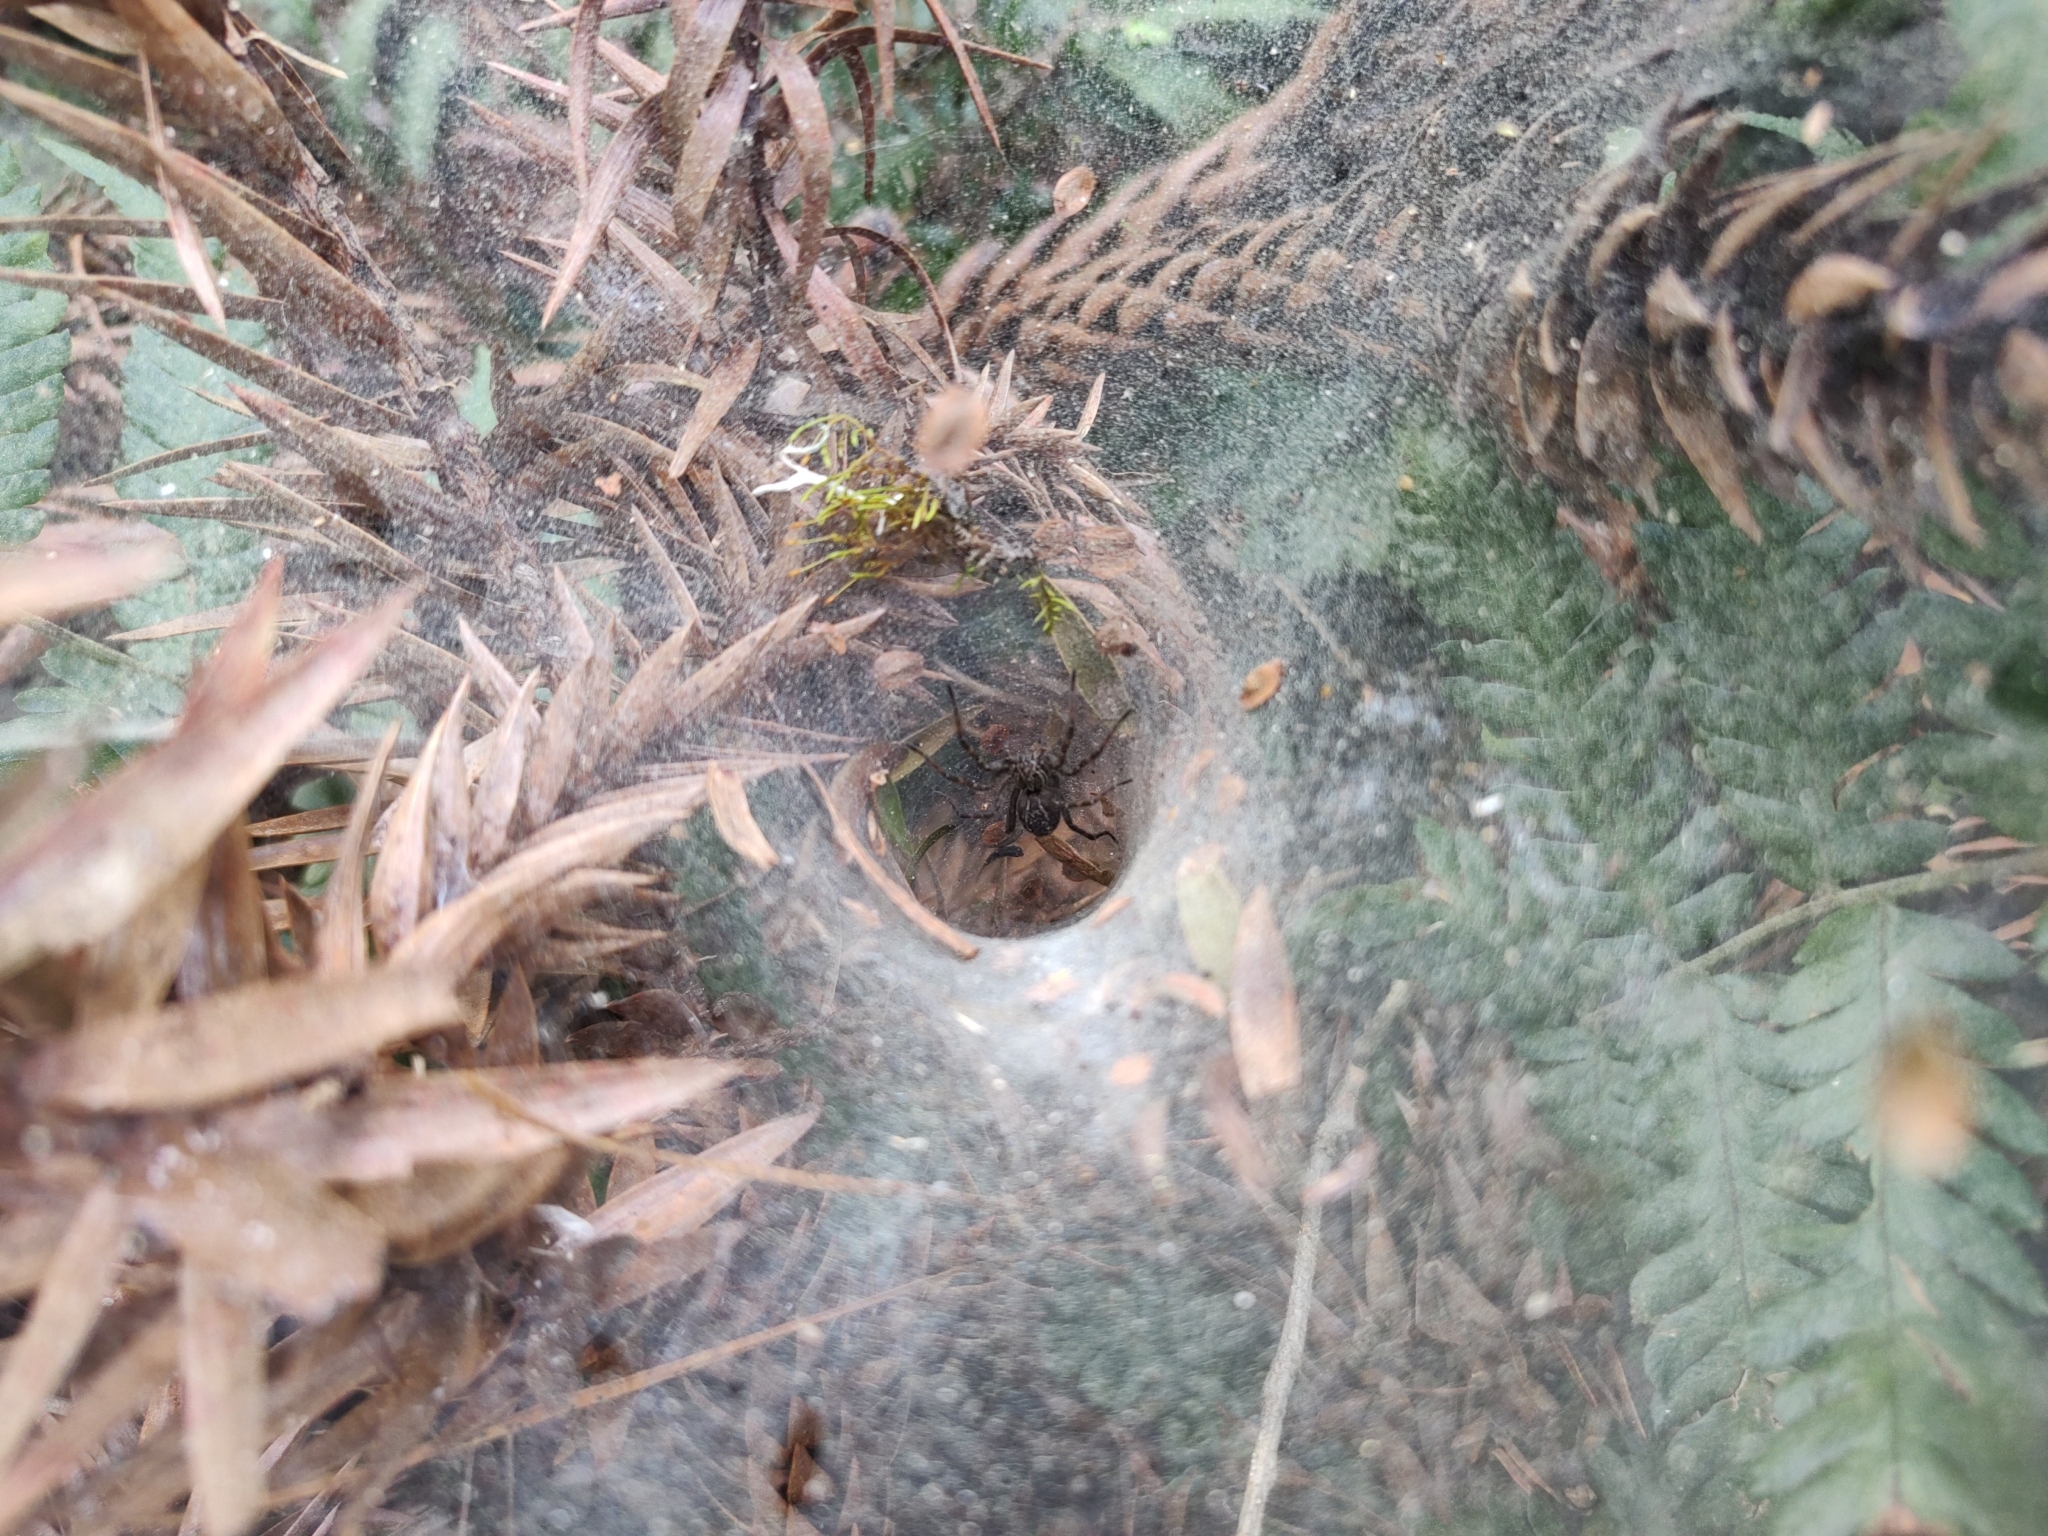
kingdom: Animalia
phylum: Arthropoda
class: Arachnida
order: Araneae
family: Lycosidae
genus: Aglaoctenus
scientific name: Aglaoctenus lagotis
